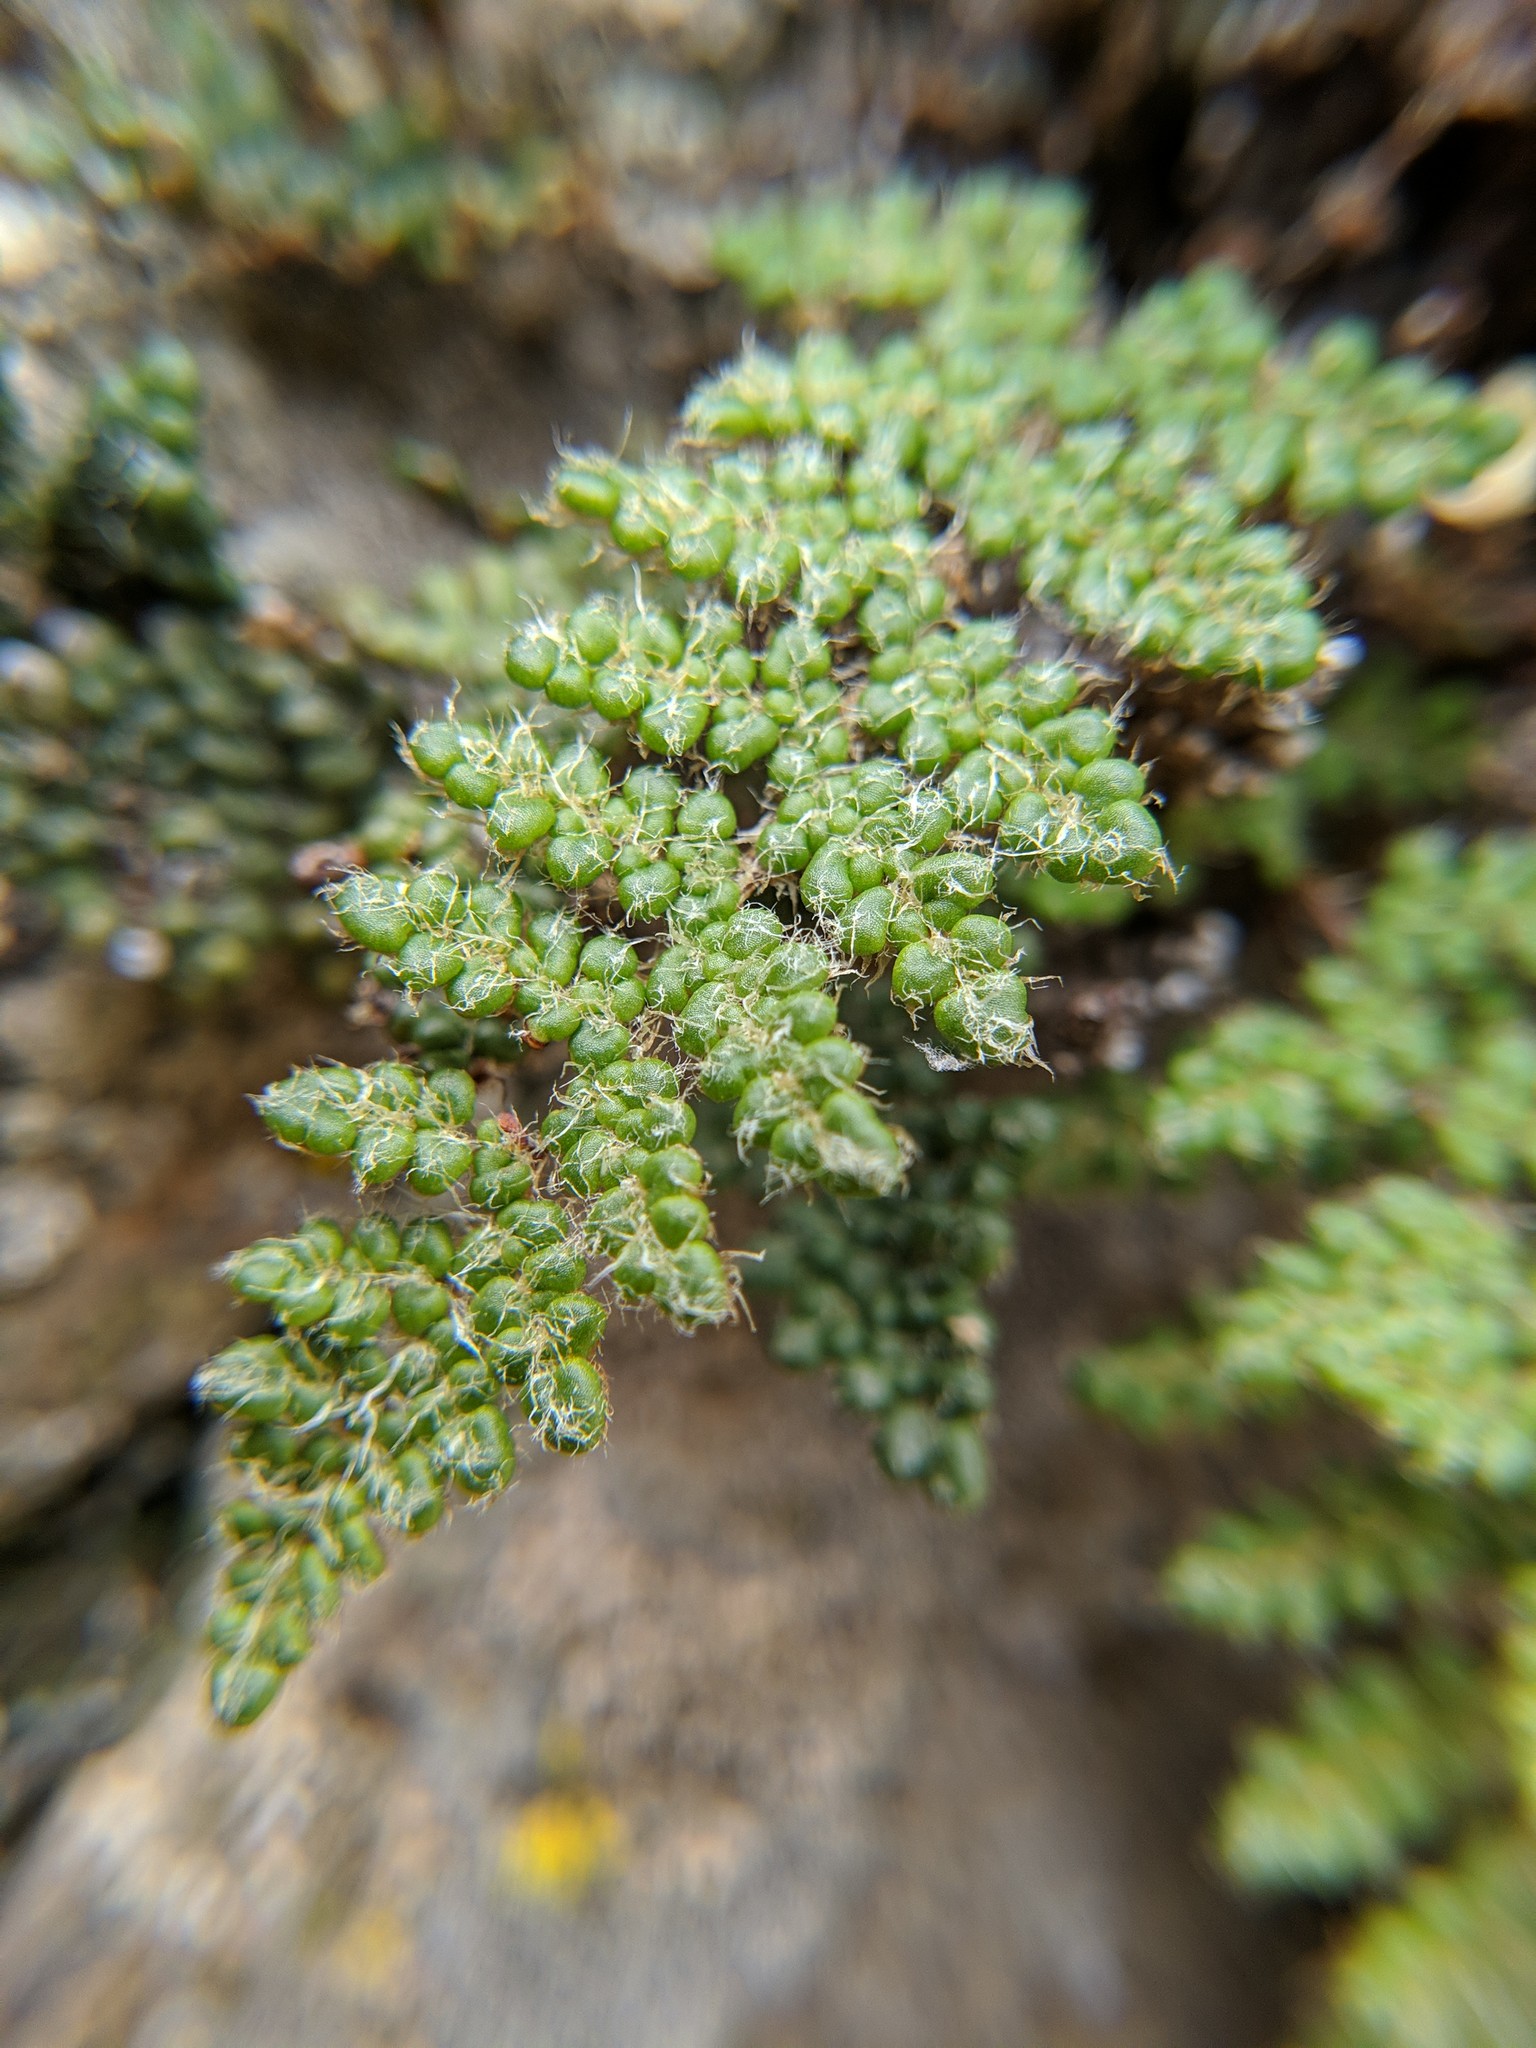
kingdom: Plantae
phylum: Tracheophyta
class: Polypodiopsida
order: Polypodiales
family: Pteridaceae
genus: Myriopteris
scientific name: Myriopteris intertexta
